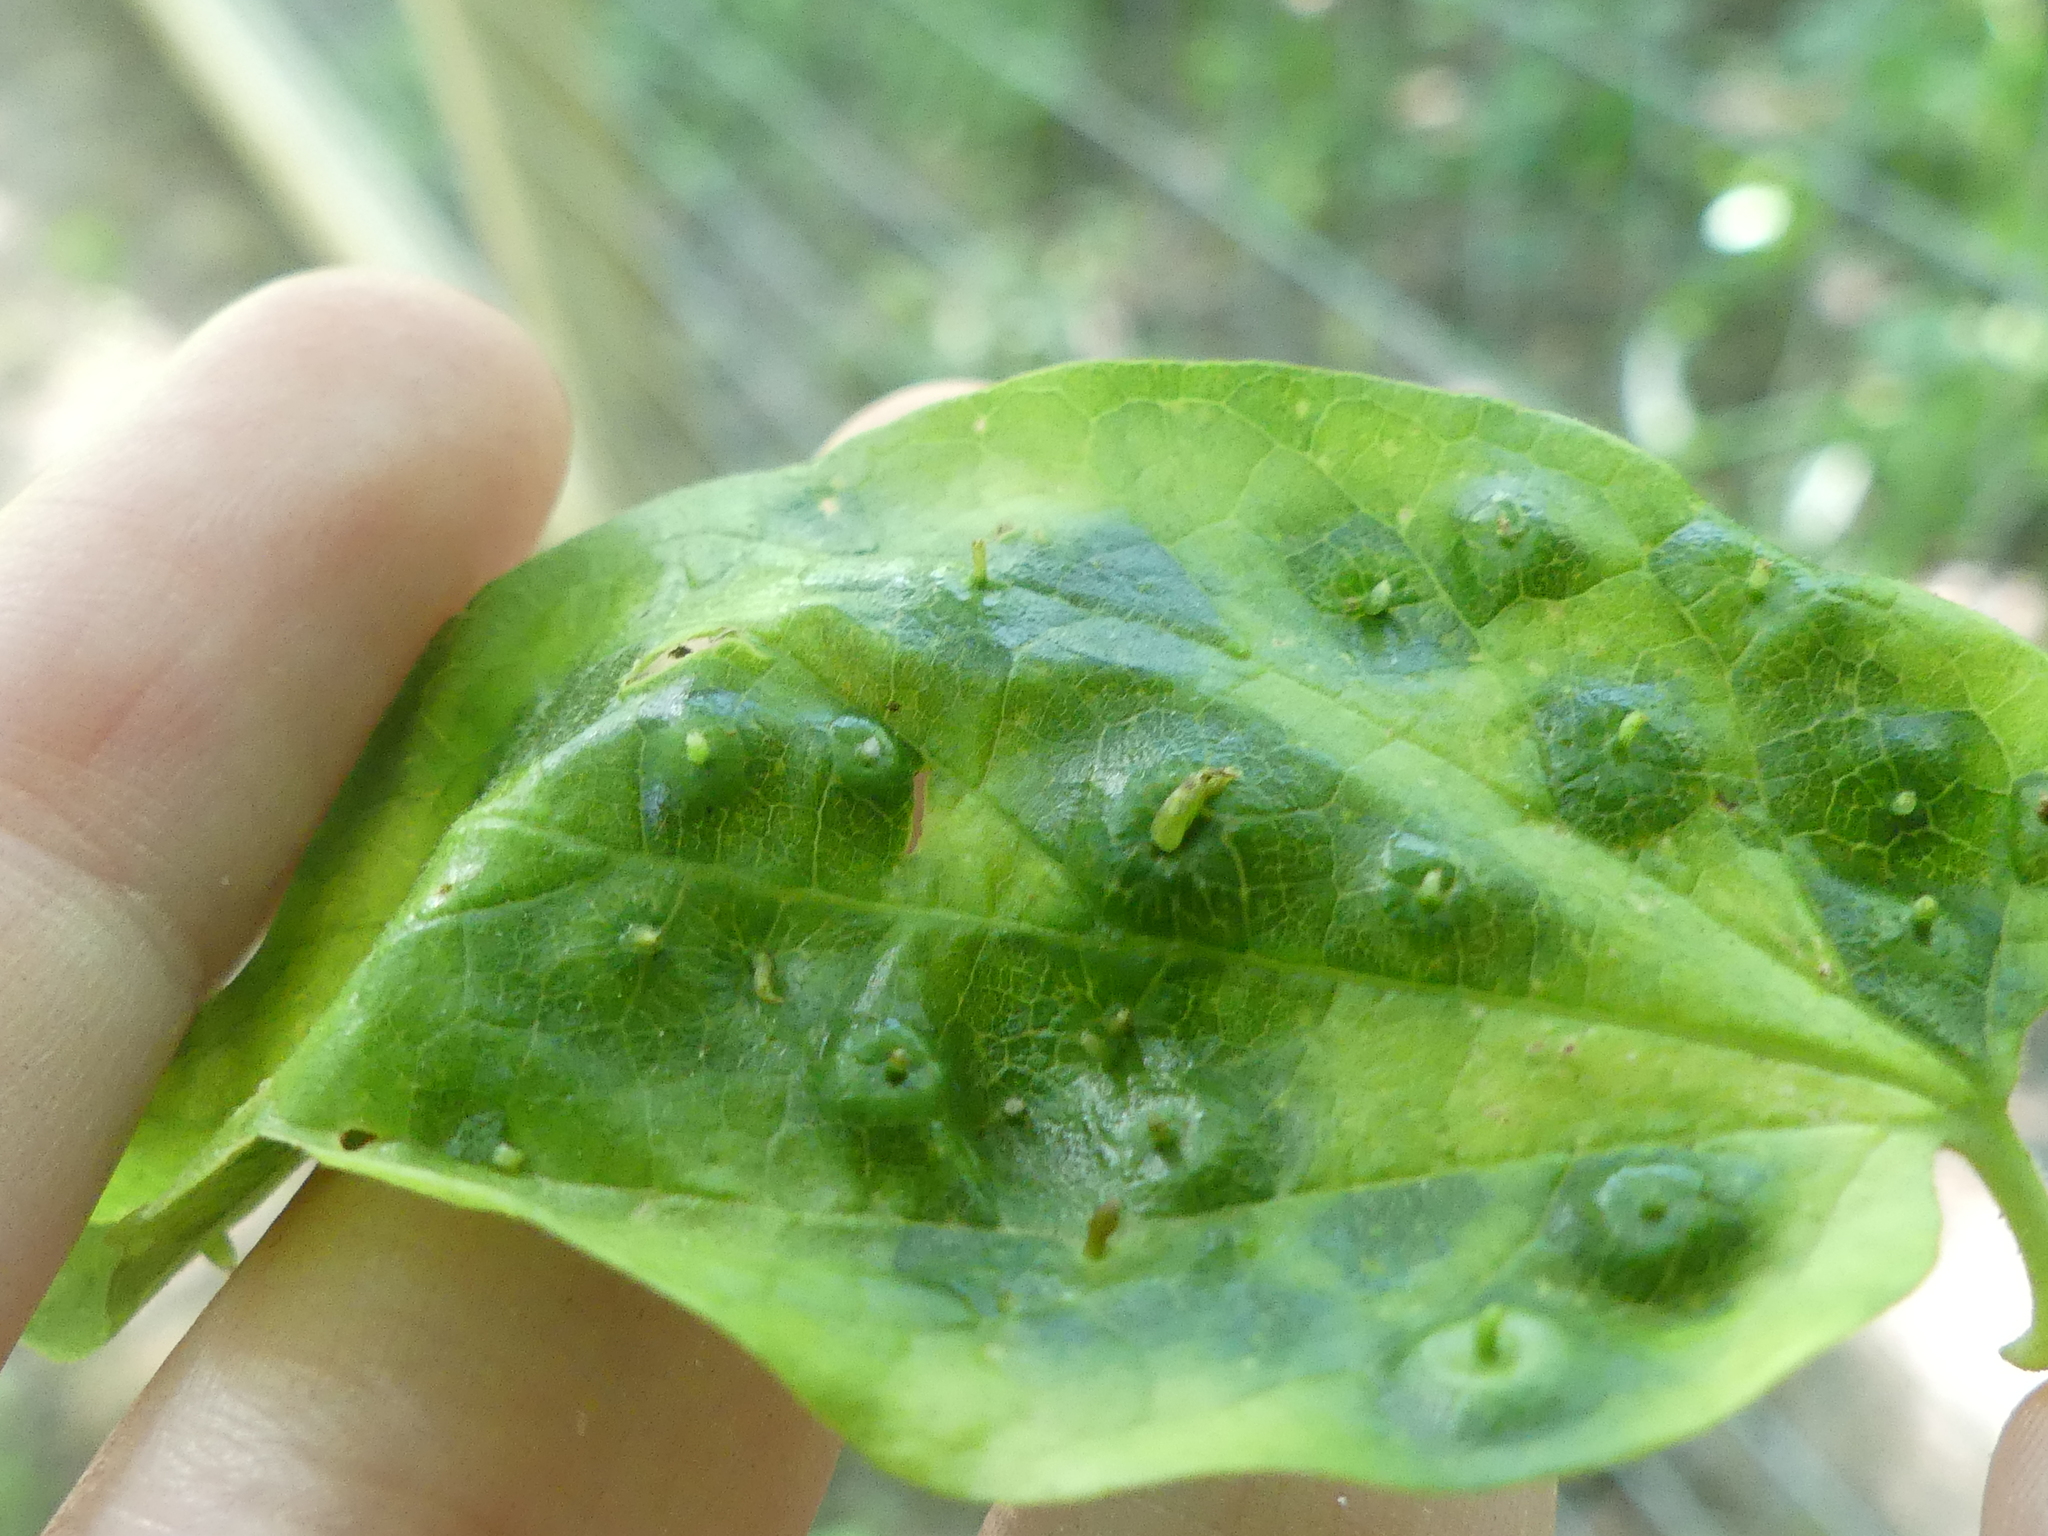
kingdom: Animalia
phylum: Arthropoda
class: Insecta
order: Hemiptera
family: Aphalaridae
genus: Pachypsylla
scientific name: Pachypsylla celtidisasterisca
